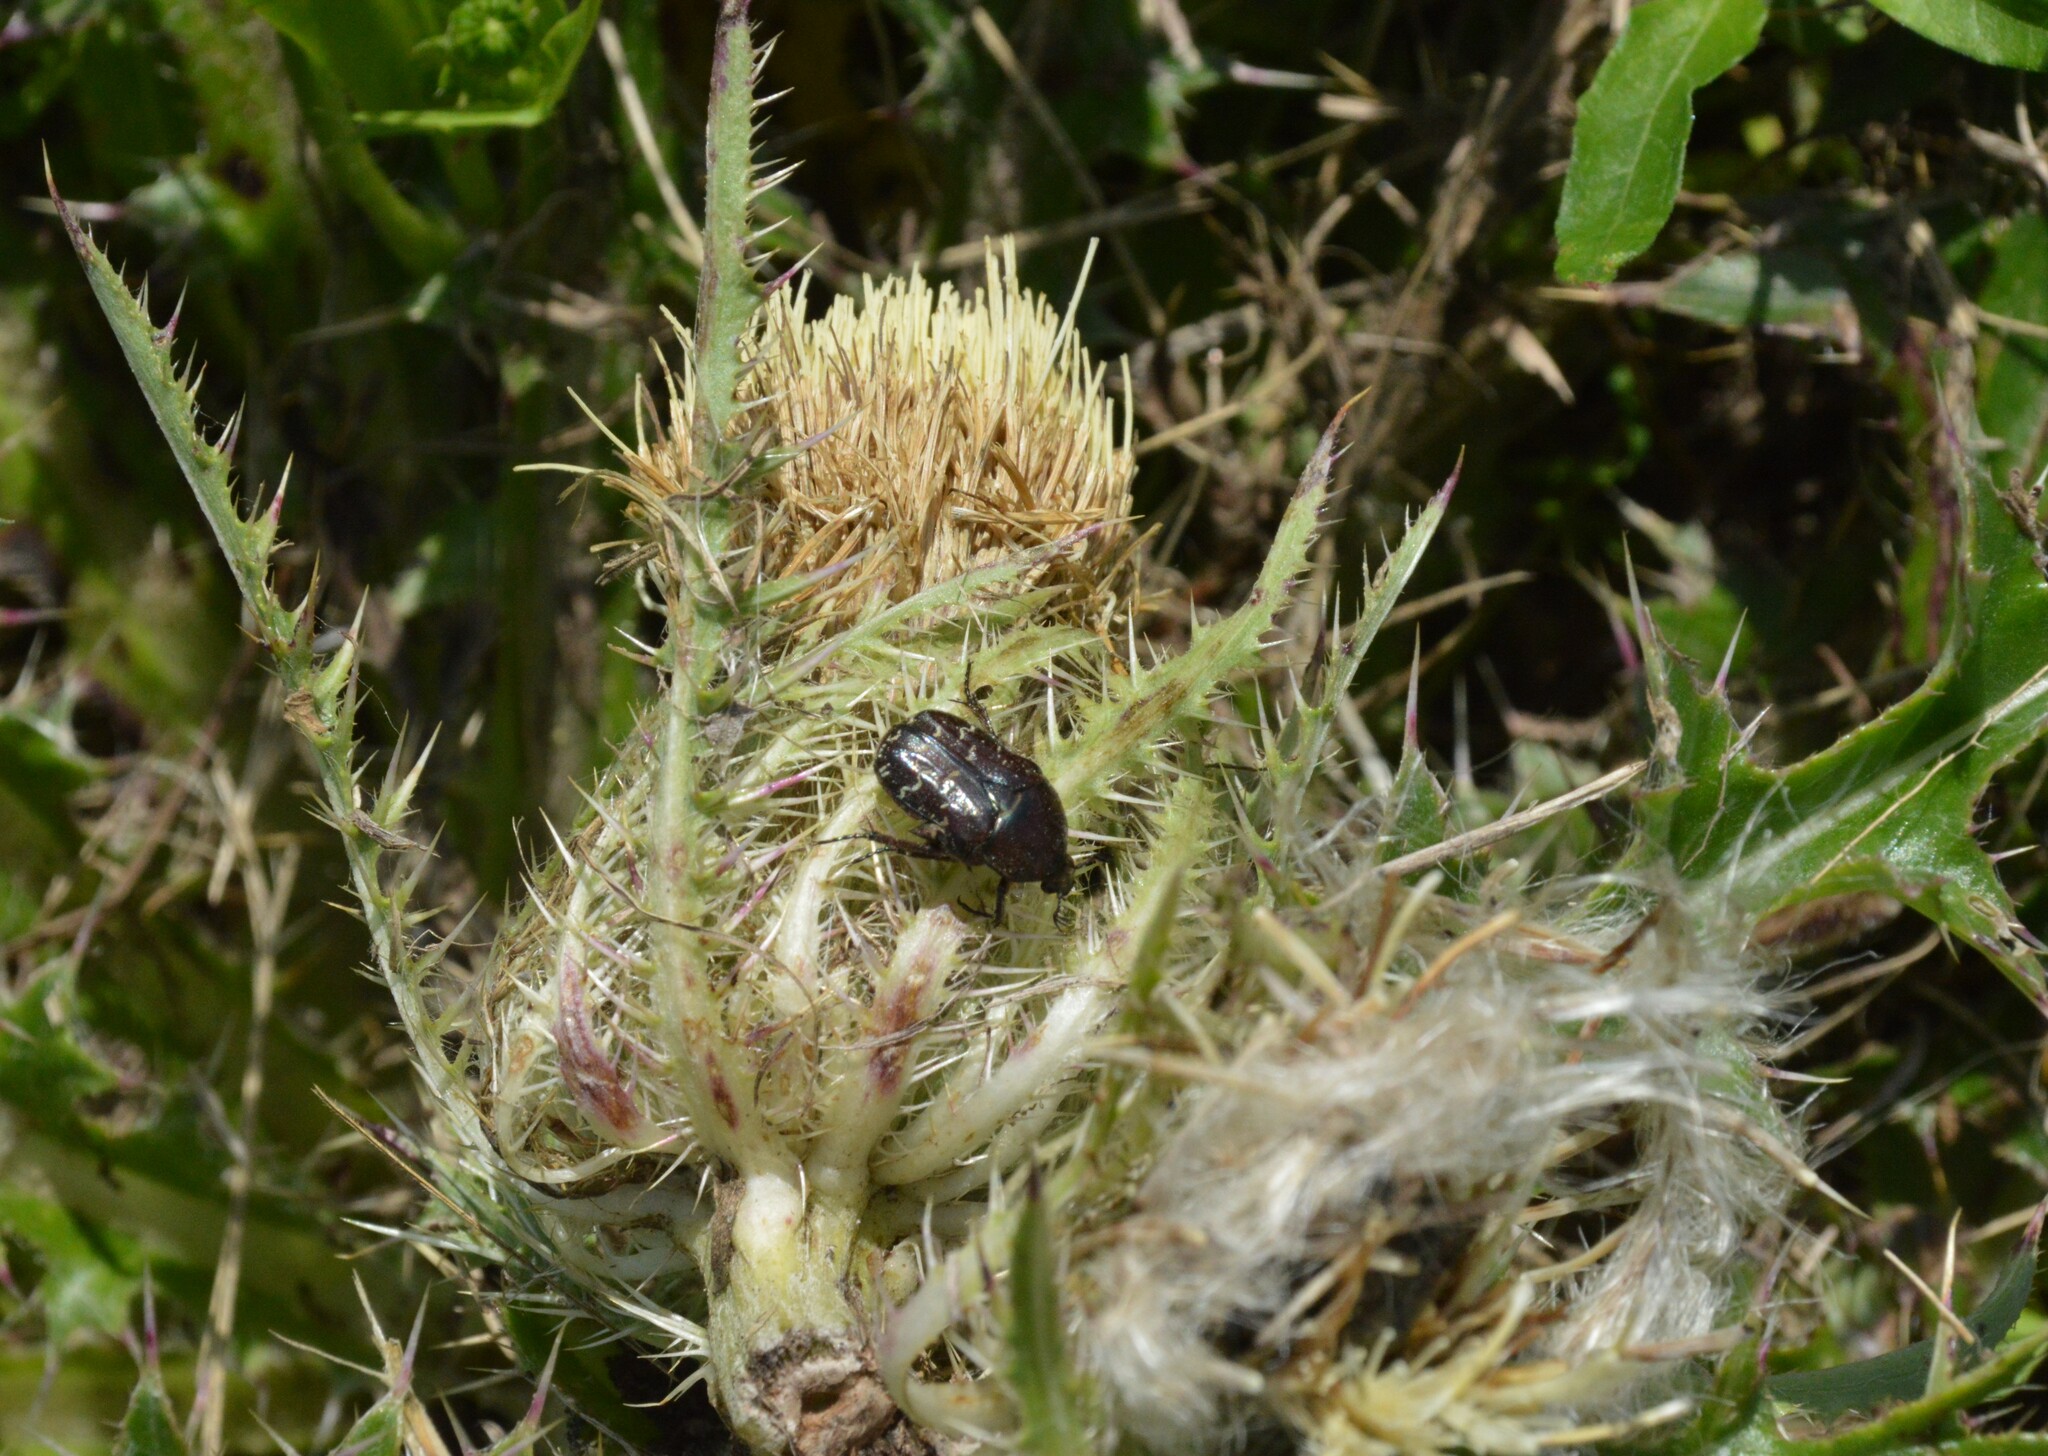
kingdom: Plantae
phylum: Tracheophyta
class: Magnoliopsida
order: Asterales
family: Asteraceae
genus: Cirsium
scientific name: Cirsium horridulum
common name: Bristly thistle
